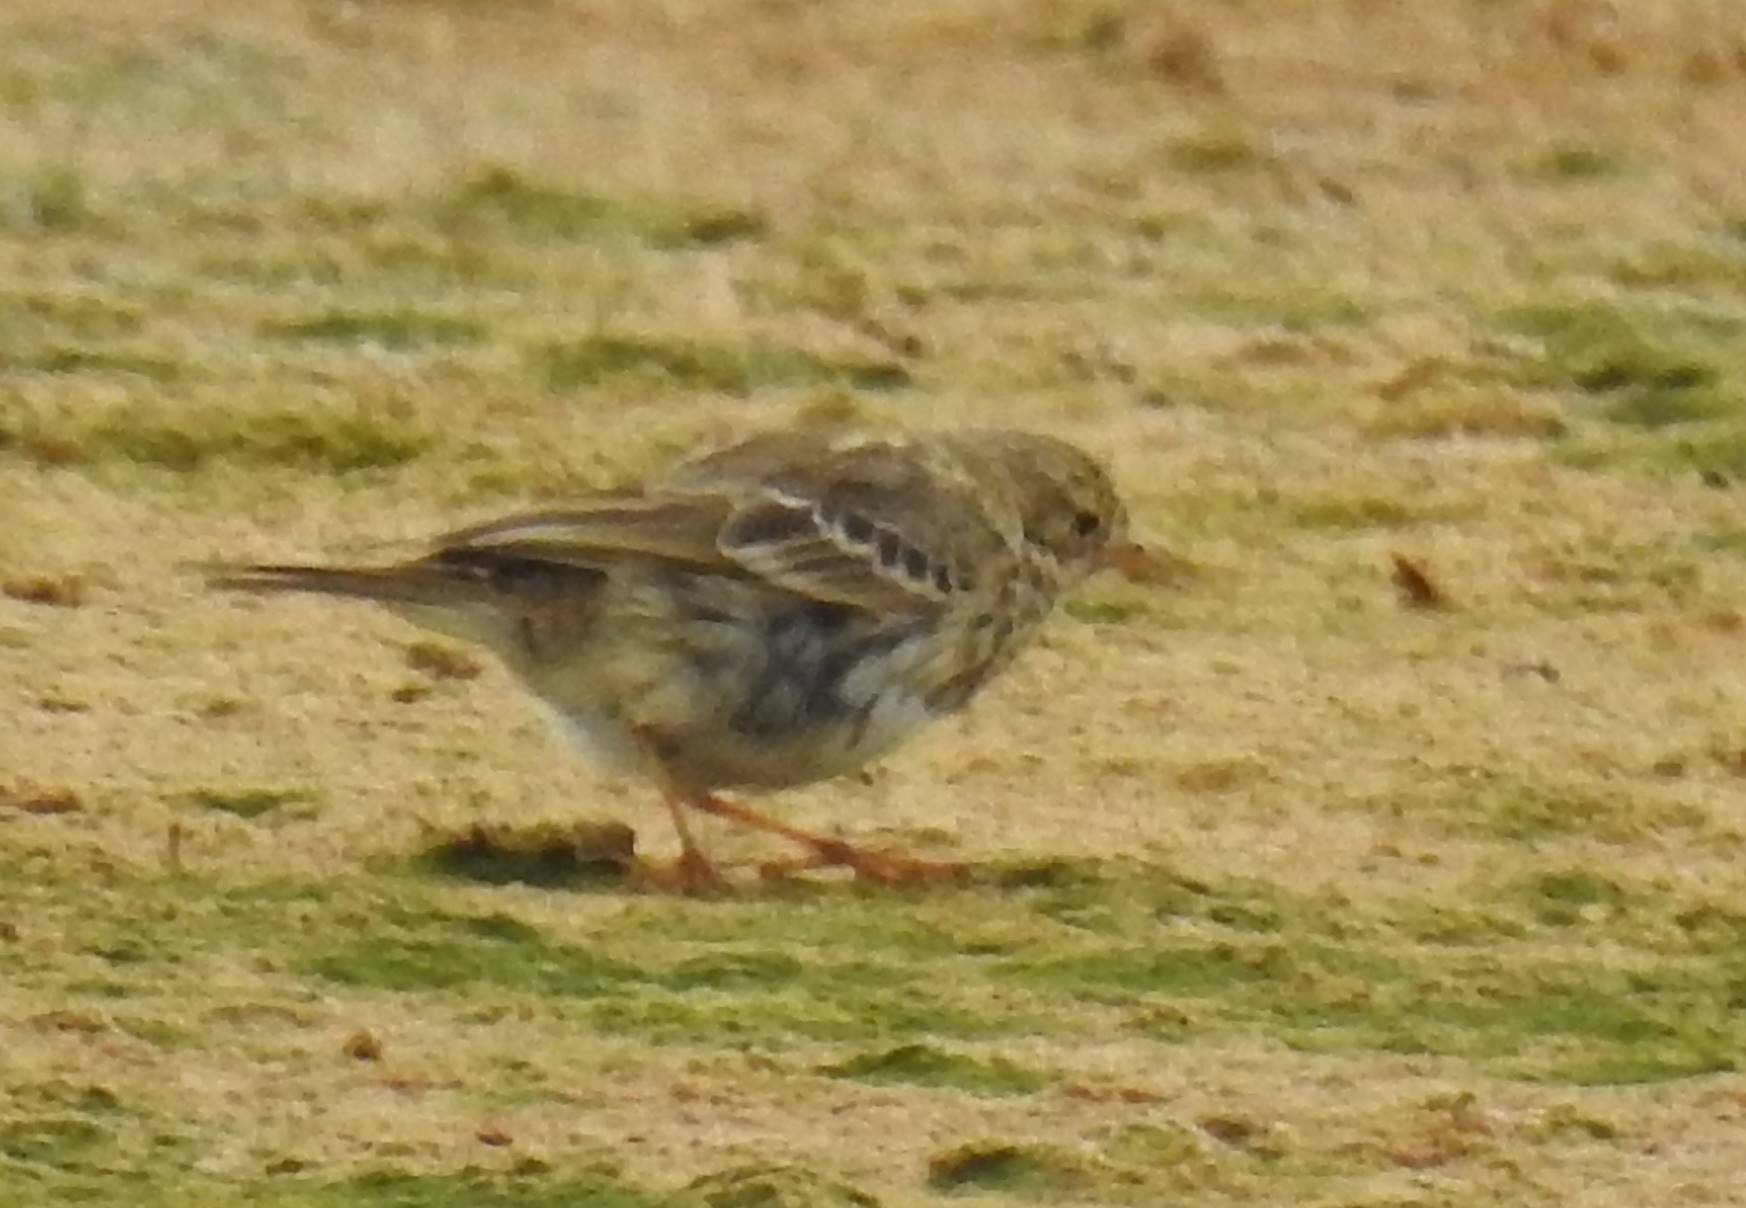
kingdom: Animalia
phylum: Chordata
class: Aves
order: Passeriformes
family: Motacillidae
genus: Anthus
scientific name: Anthus pratensis
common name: Meadow pipit
